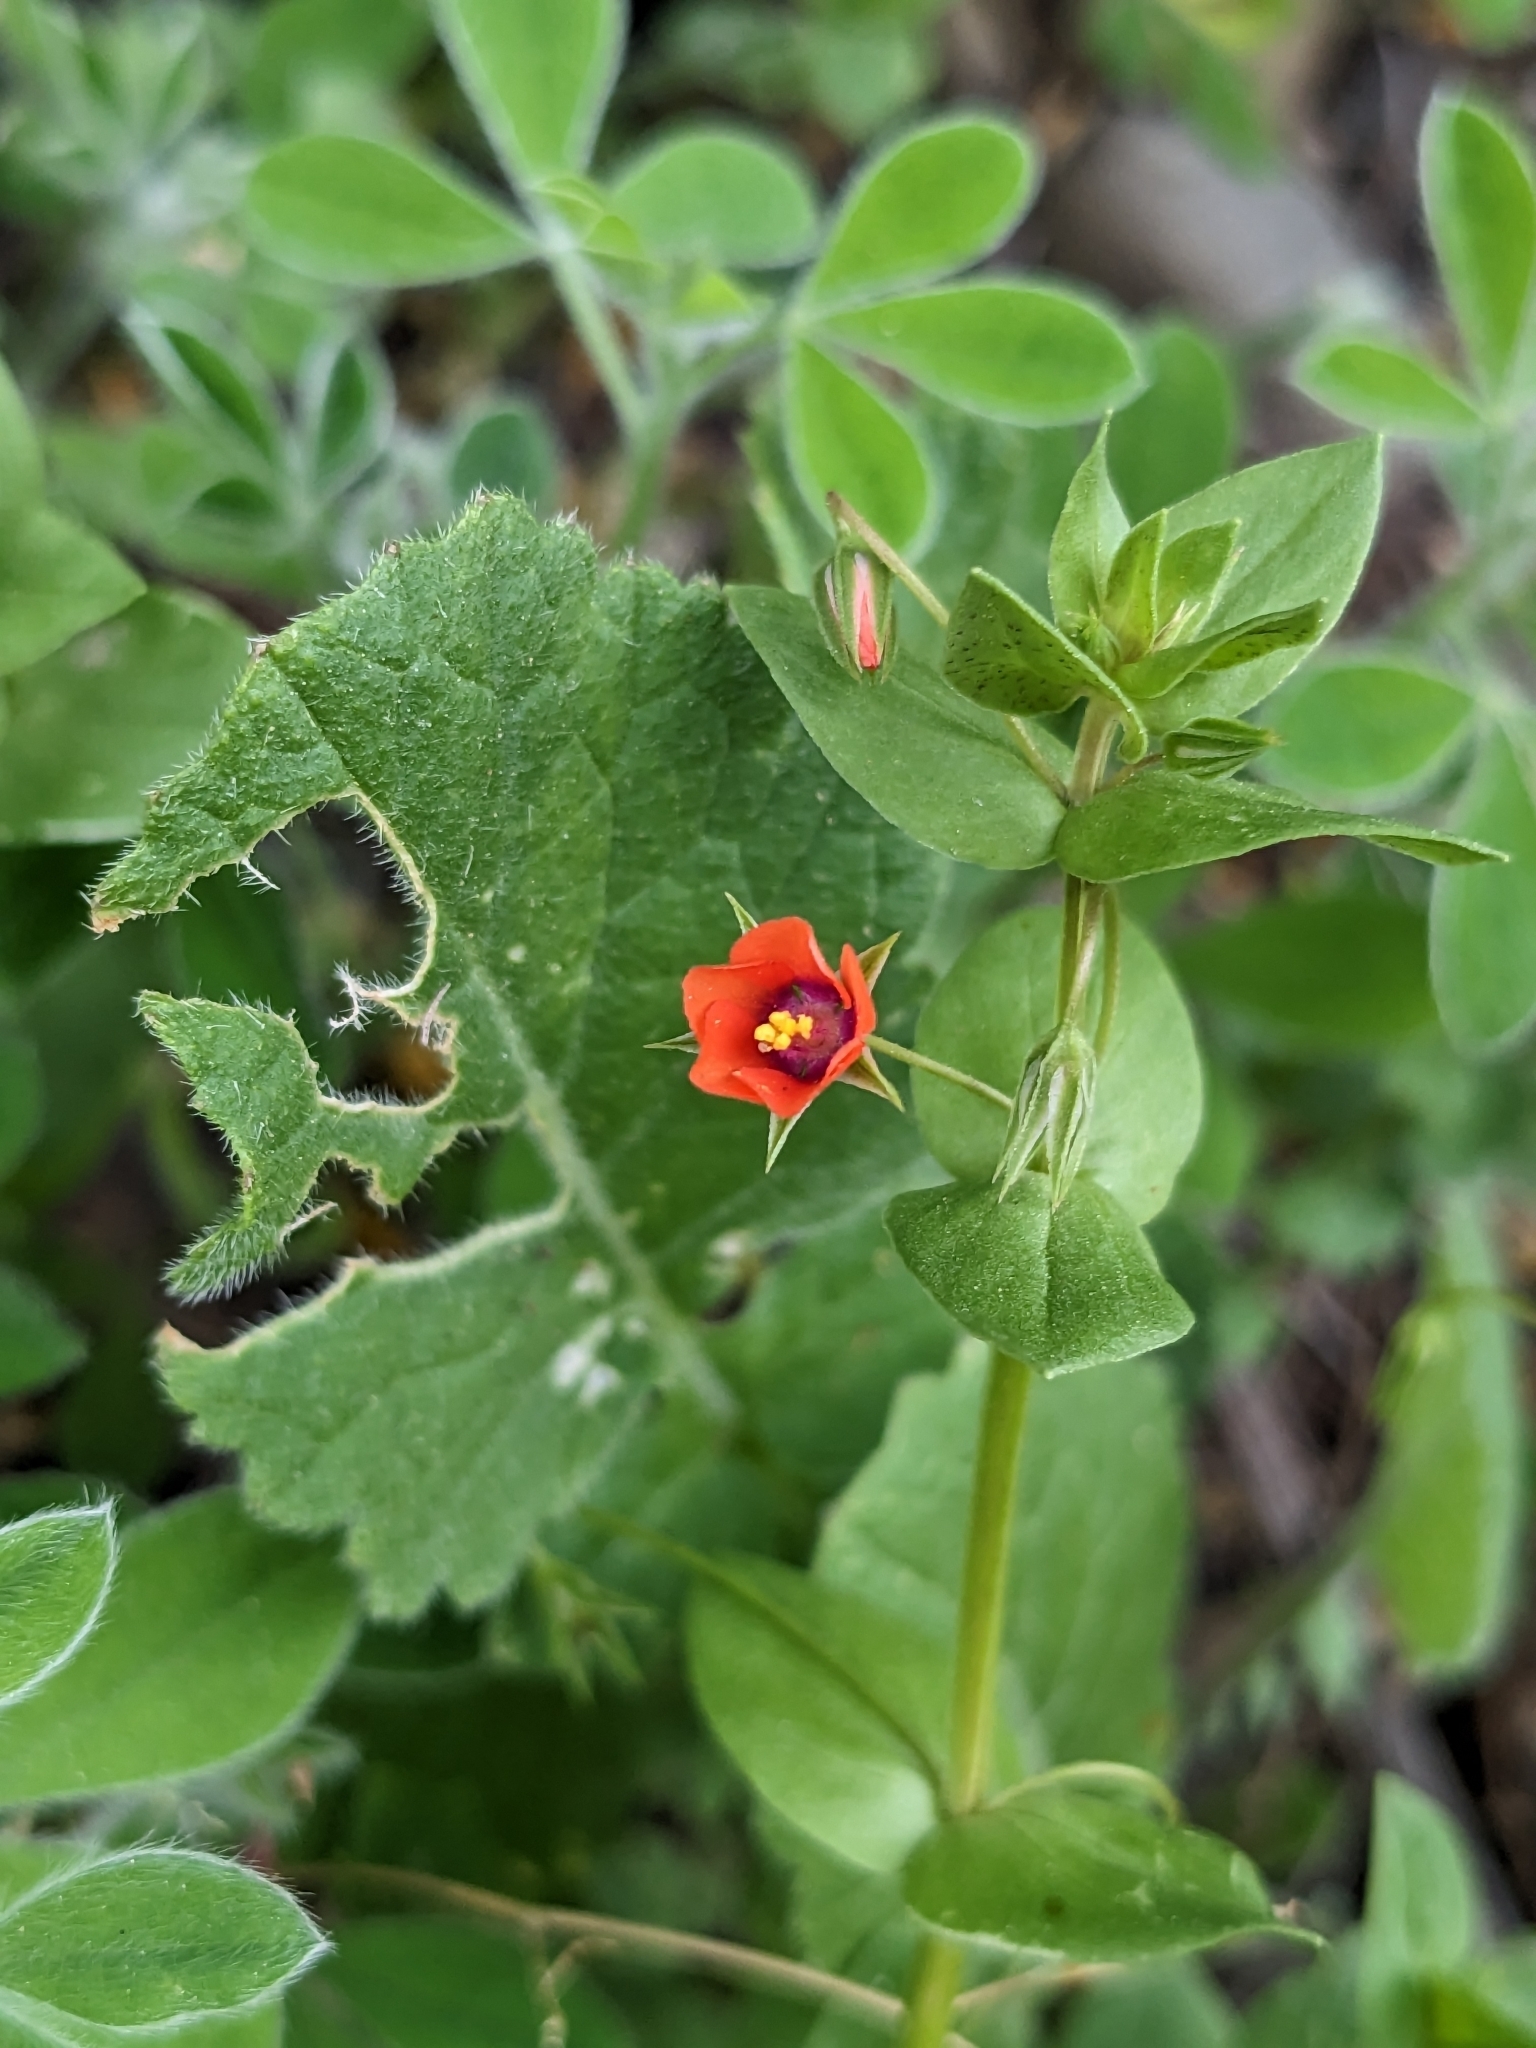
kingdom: Plantae
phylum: Tracheophyta
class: Magnoliopsida
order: Ericales
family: Primulaceae
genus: Lysimachia
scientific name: Lysimachia arvensis
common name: Scarlet pimpernel
